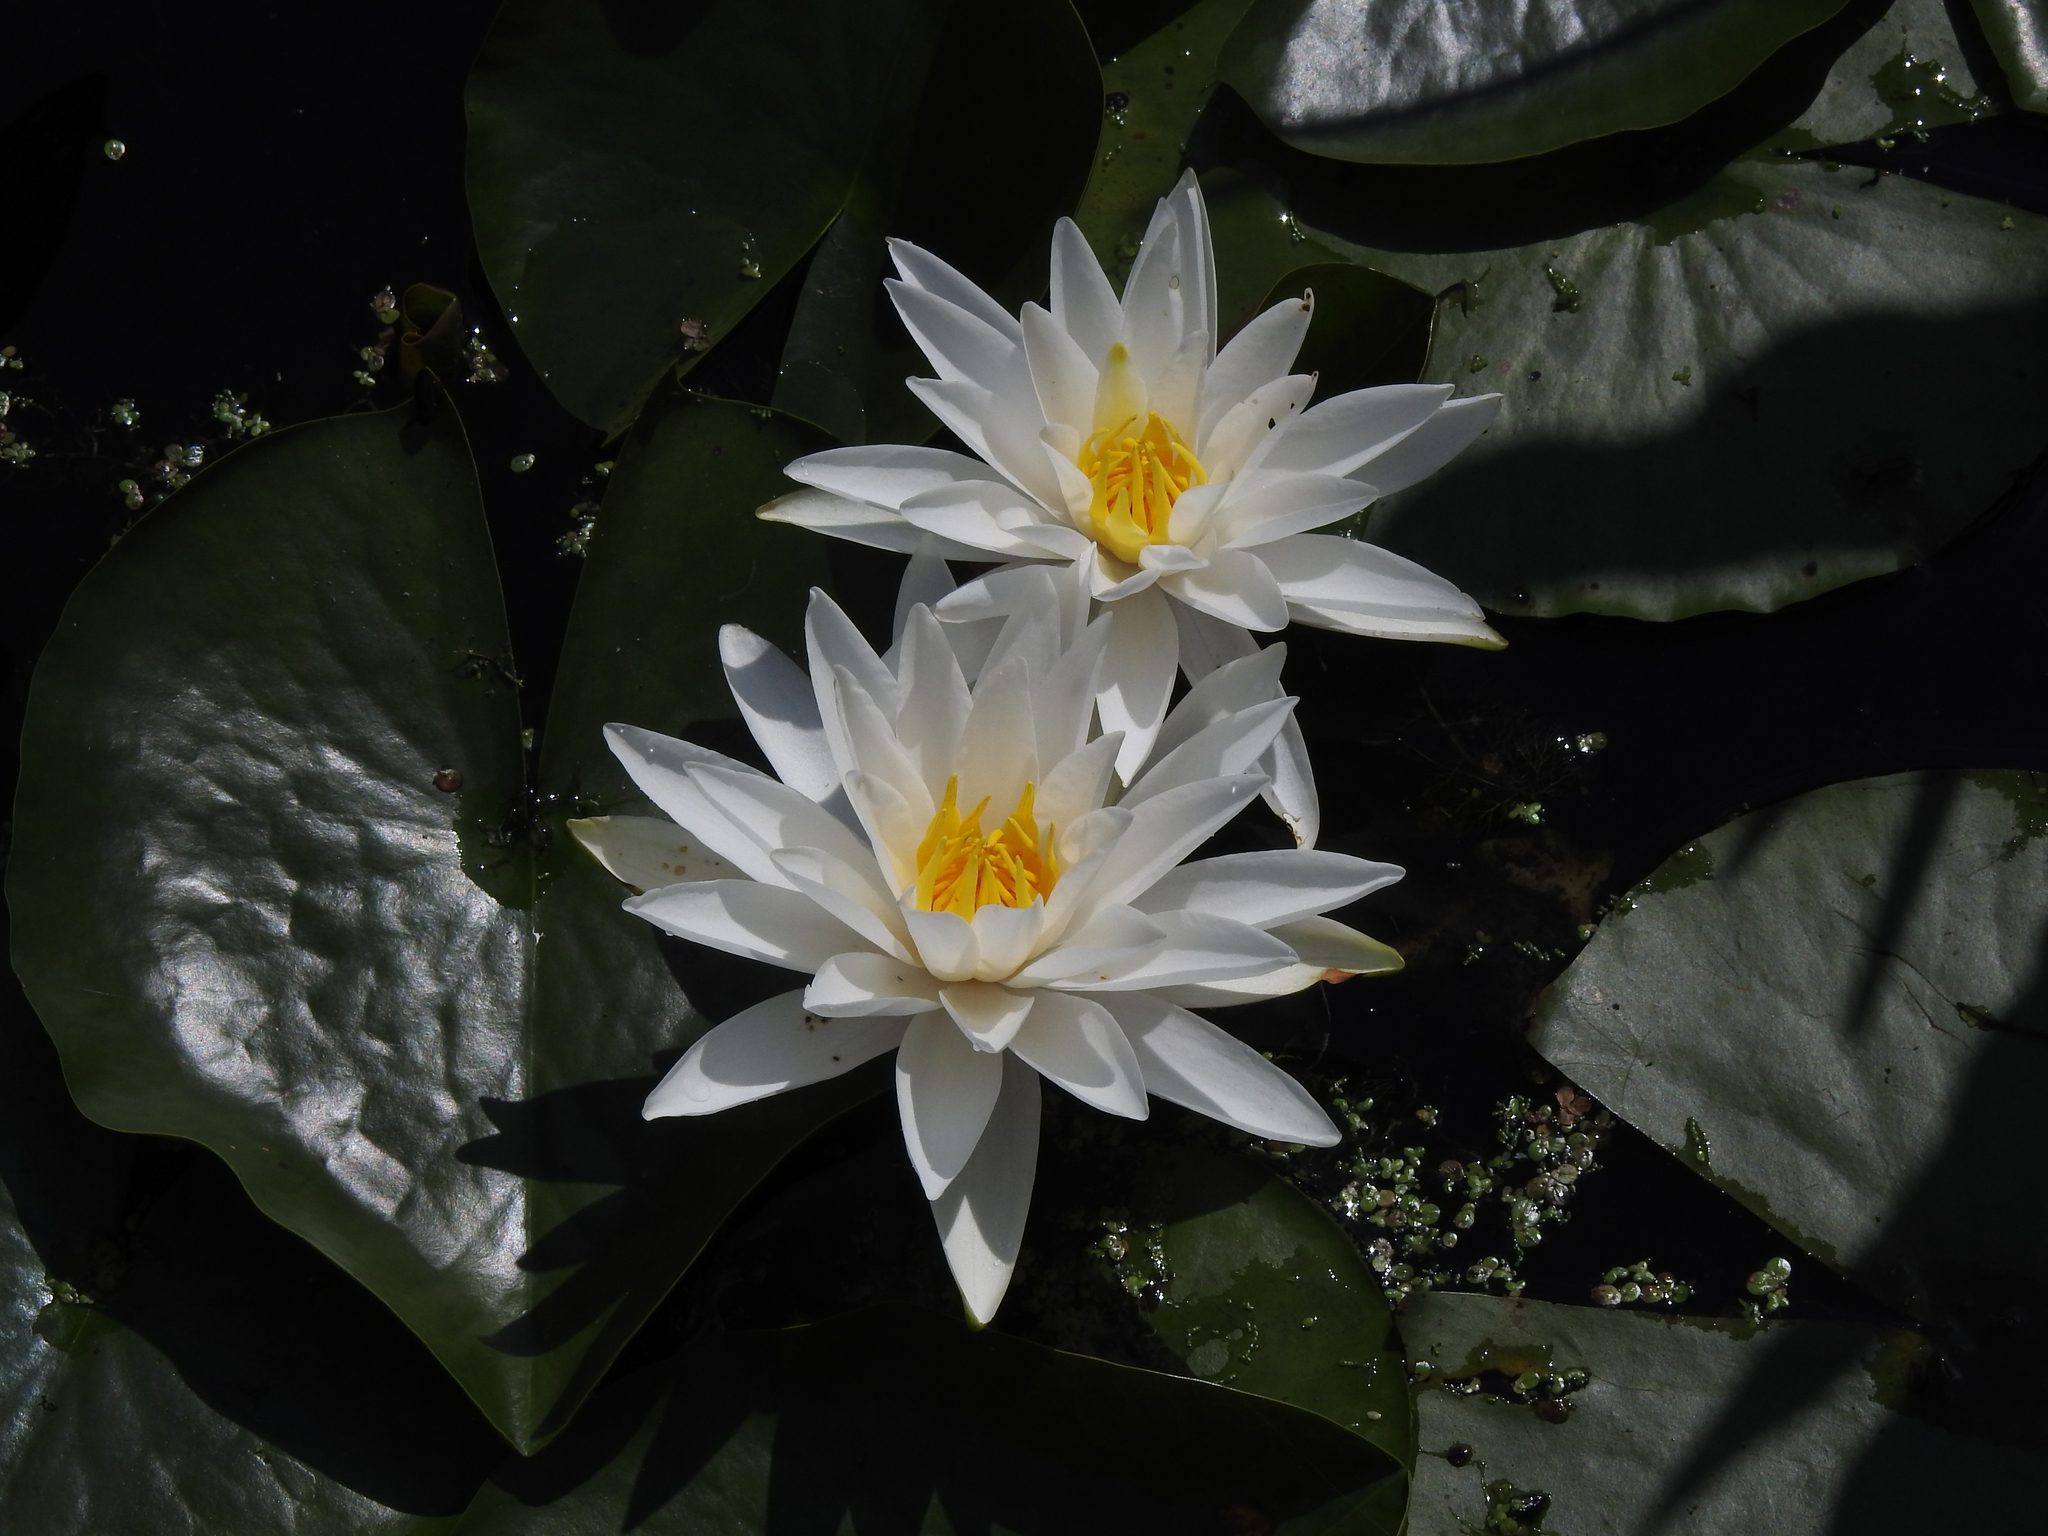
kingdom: Plantae
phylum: Tracheophyta
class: Magnoliopsida
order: Nymphaeales
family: Nymphaeaceae
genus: Nymphaea
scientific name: Nymphaea odorata
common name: Fragrant water-lily
